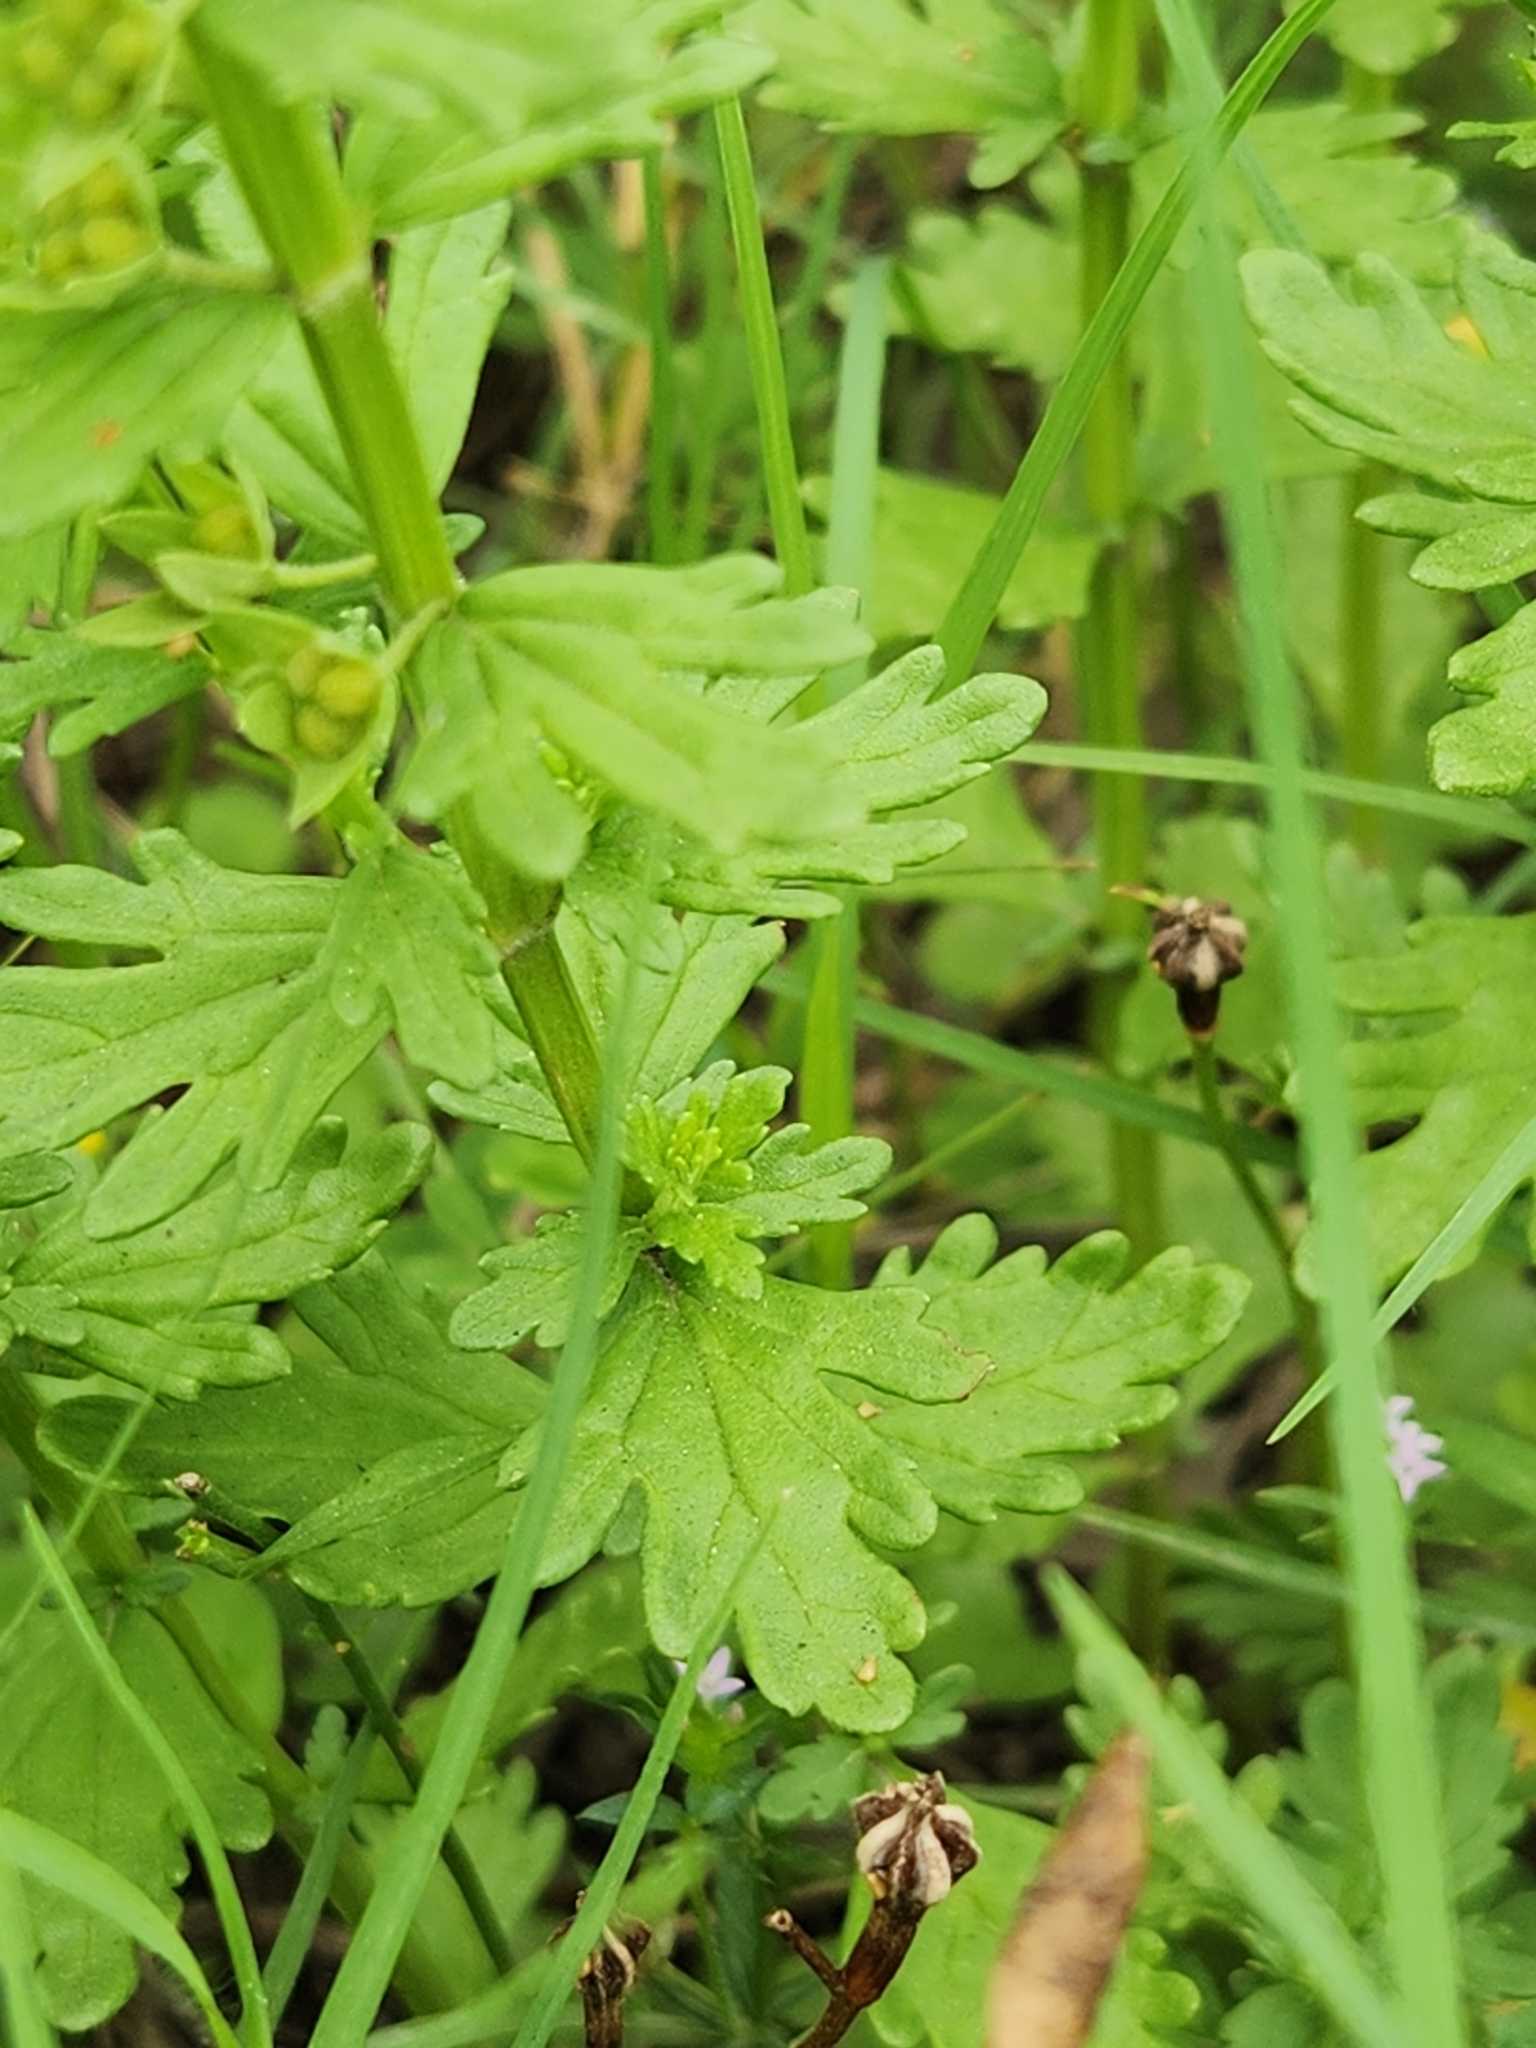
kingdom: Plantae
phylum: Tracheophyta
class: Magnoliopsida
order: Lamiales
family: Lamiaceae
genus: Teucrium
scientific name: Teucrium cubense
